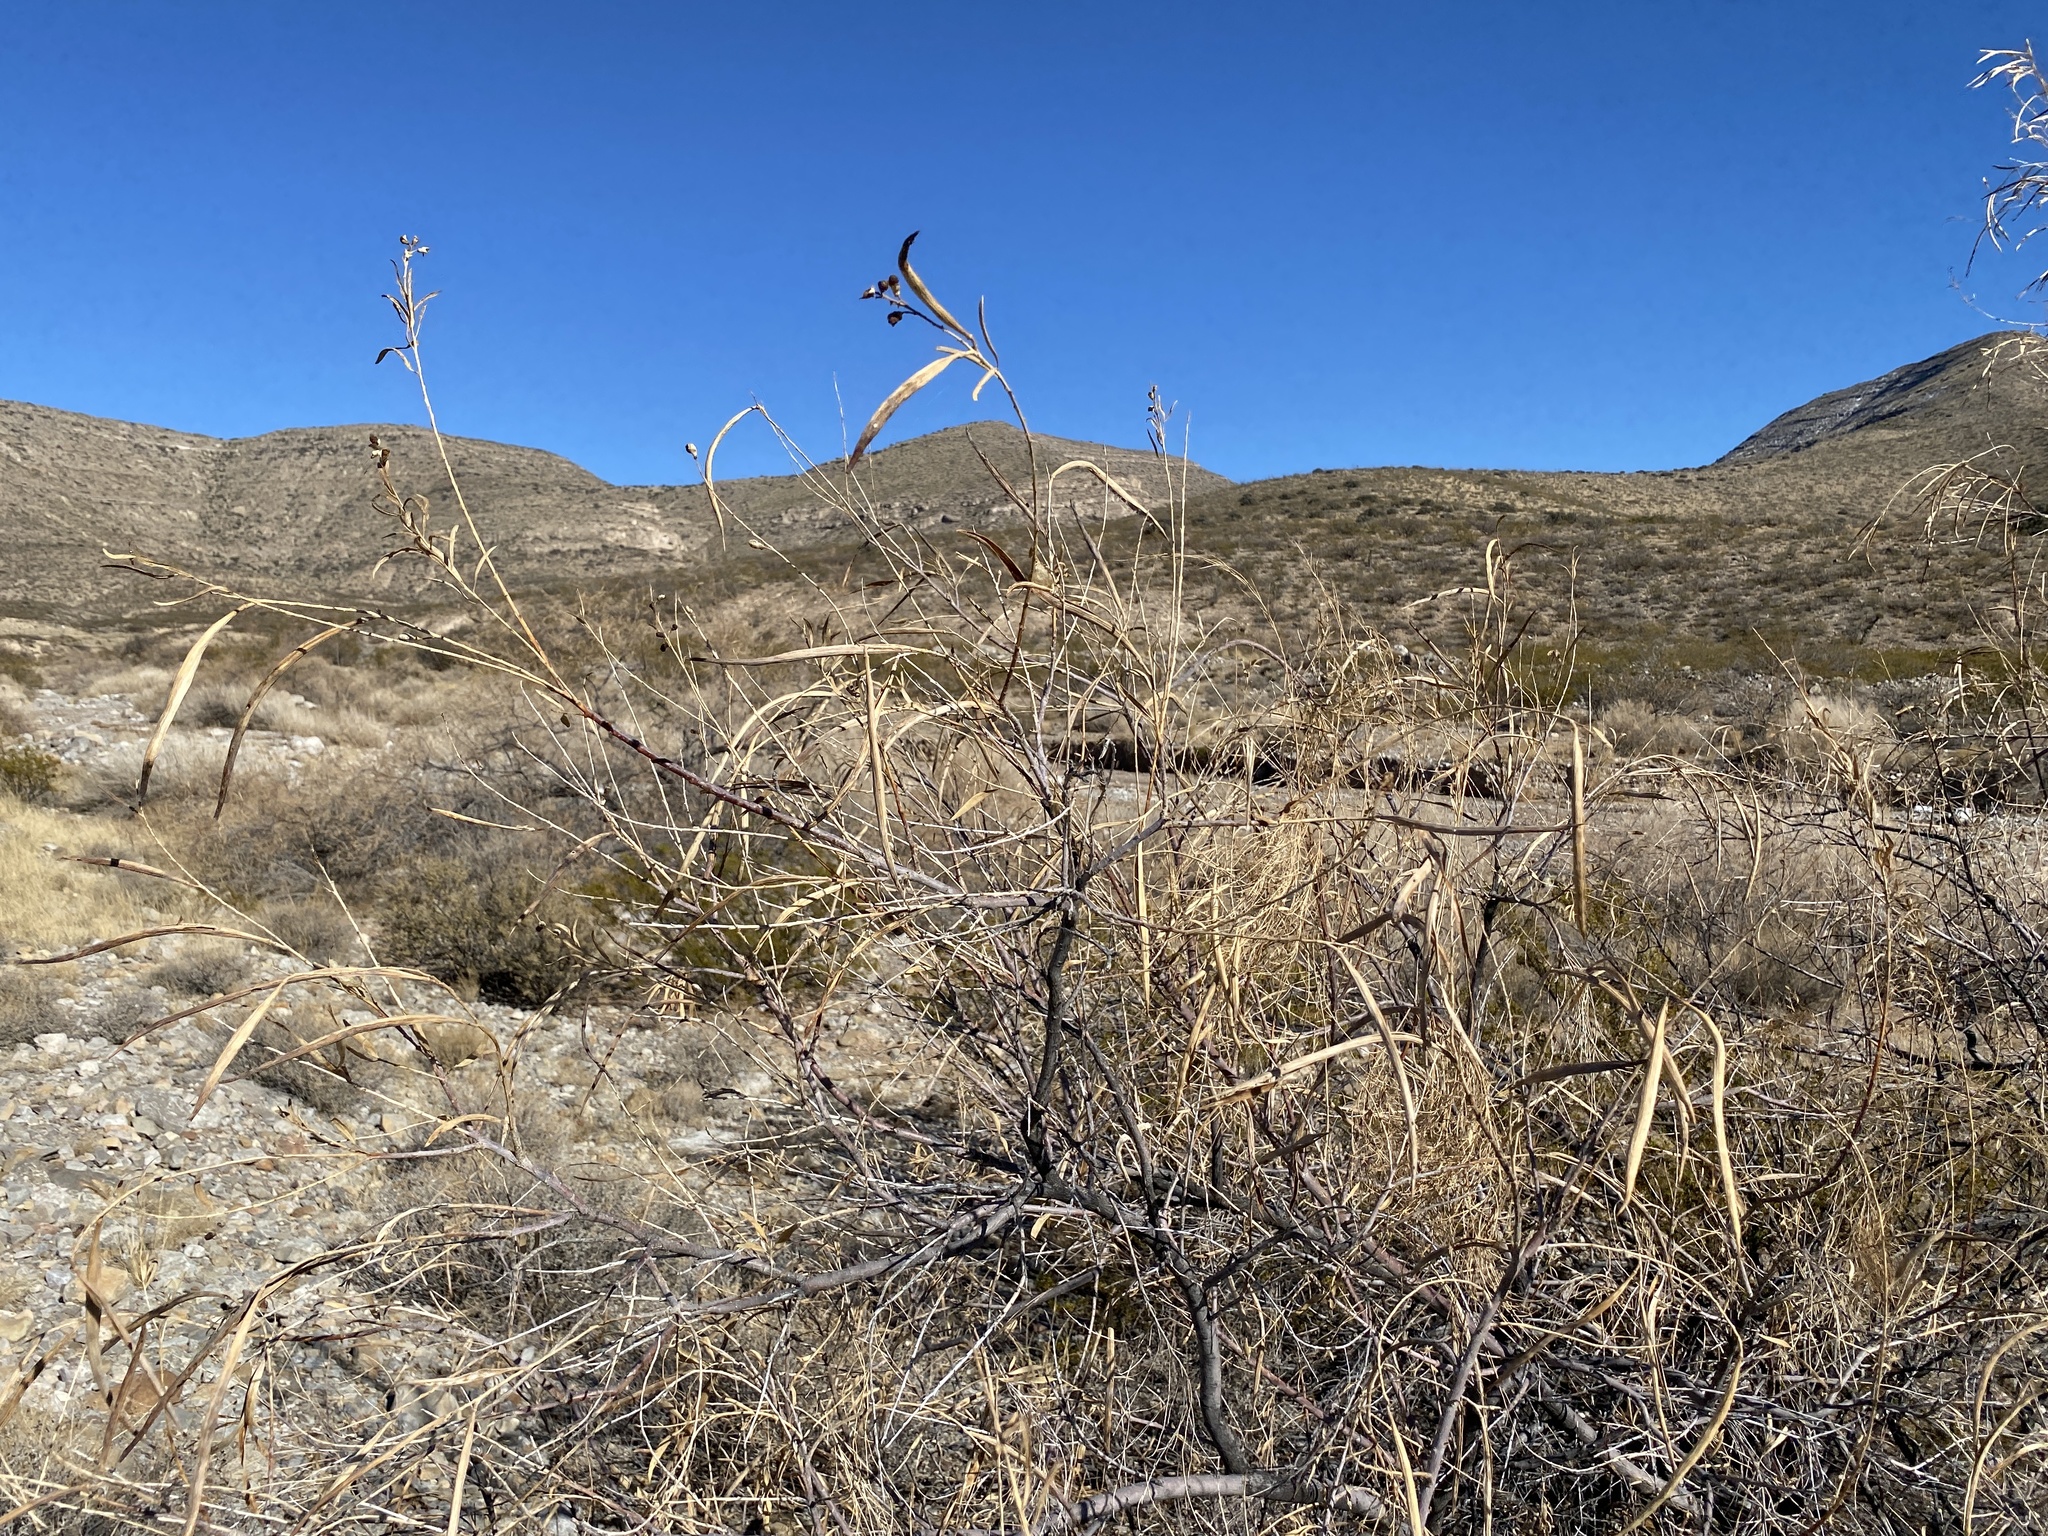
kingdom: Plantae
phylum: Tracheophyta
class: Magnoliopsida
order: Lamiales
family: Bignoniaceae
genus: Chilopsis
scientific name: Chilopsis linearis
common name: Desert-willow
